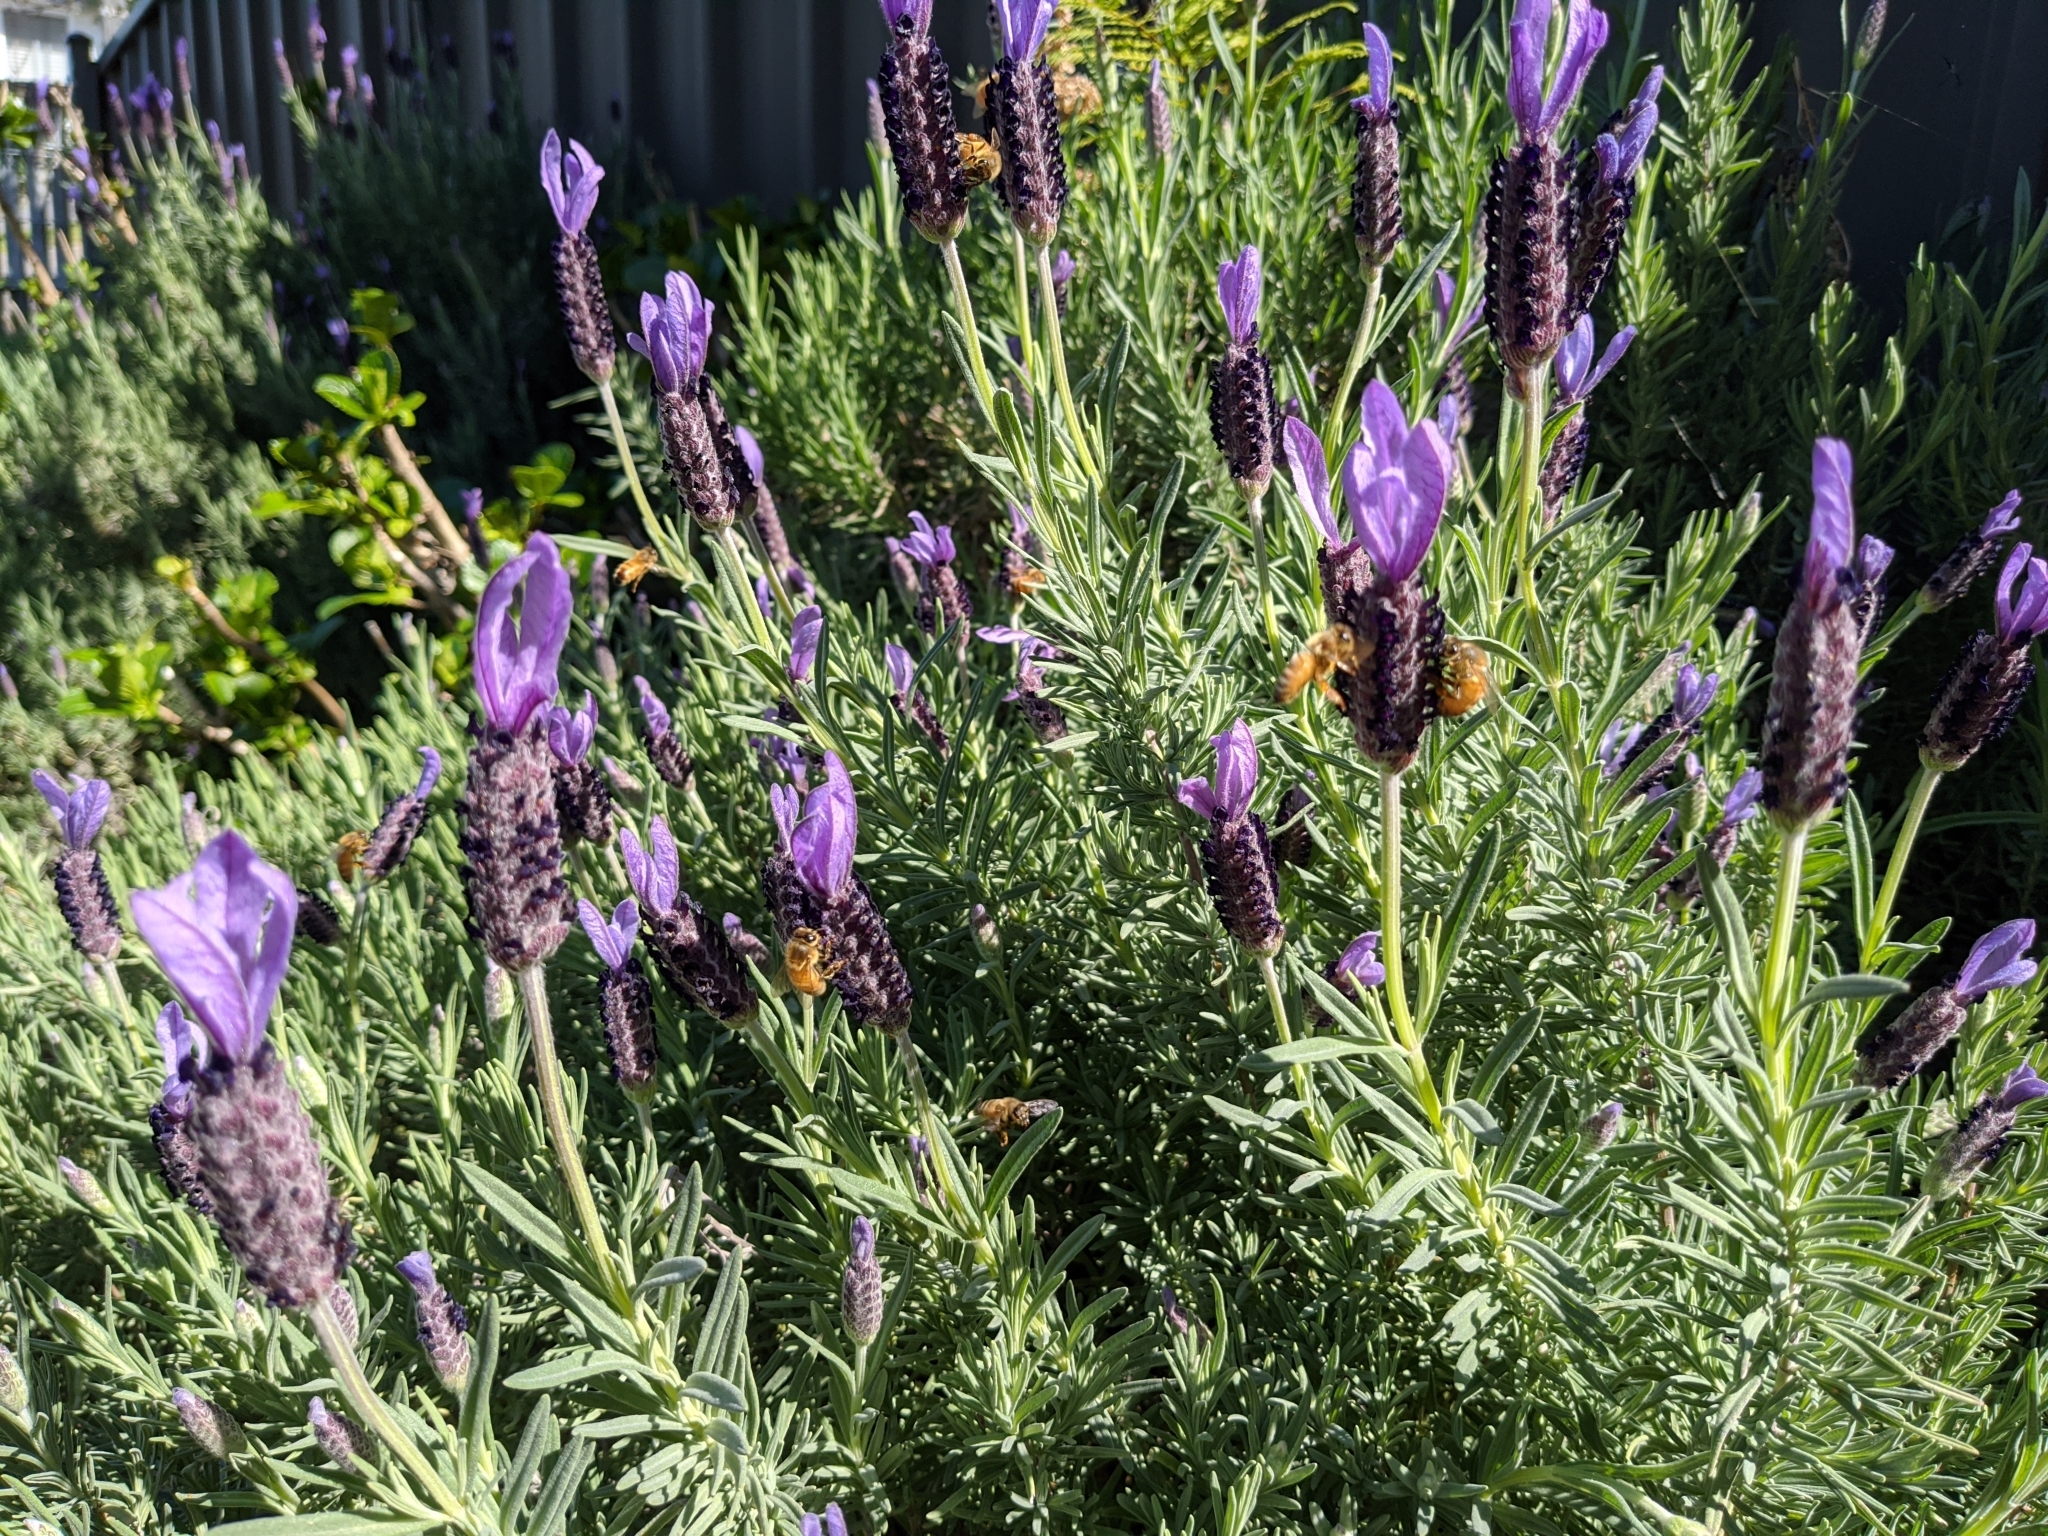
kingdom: Animalia
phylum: Arthropoda
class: Insecta
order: Hymenoptera
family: Apidae
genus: Apis
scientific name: Apis mellifera
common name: Honey bee
